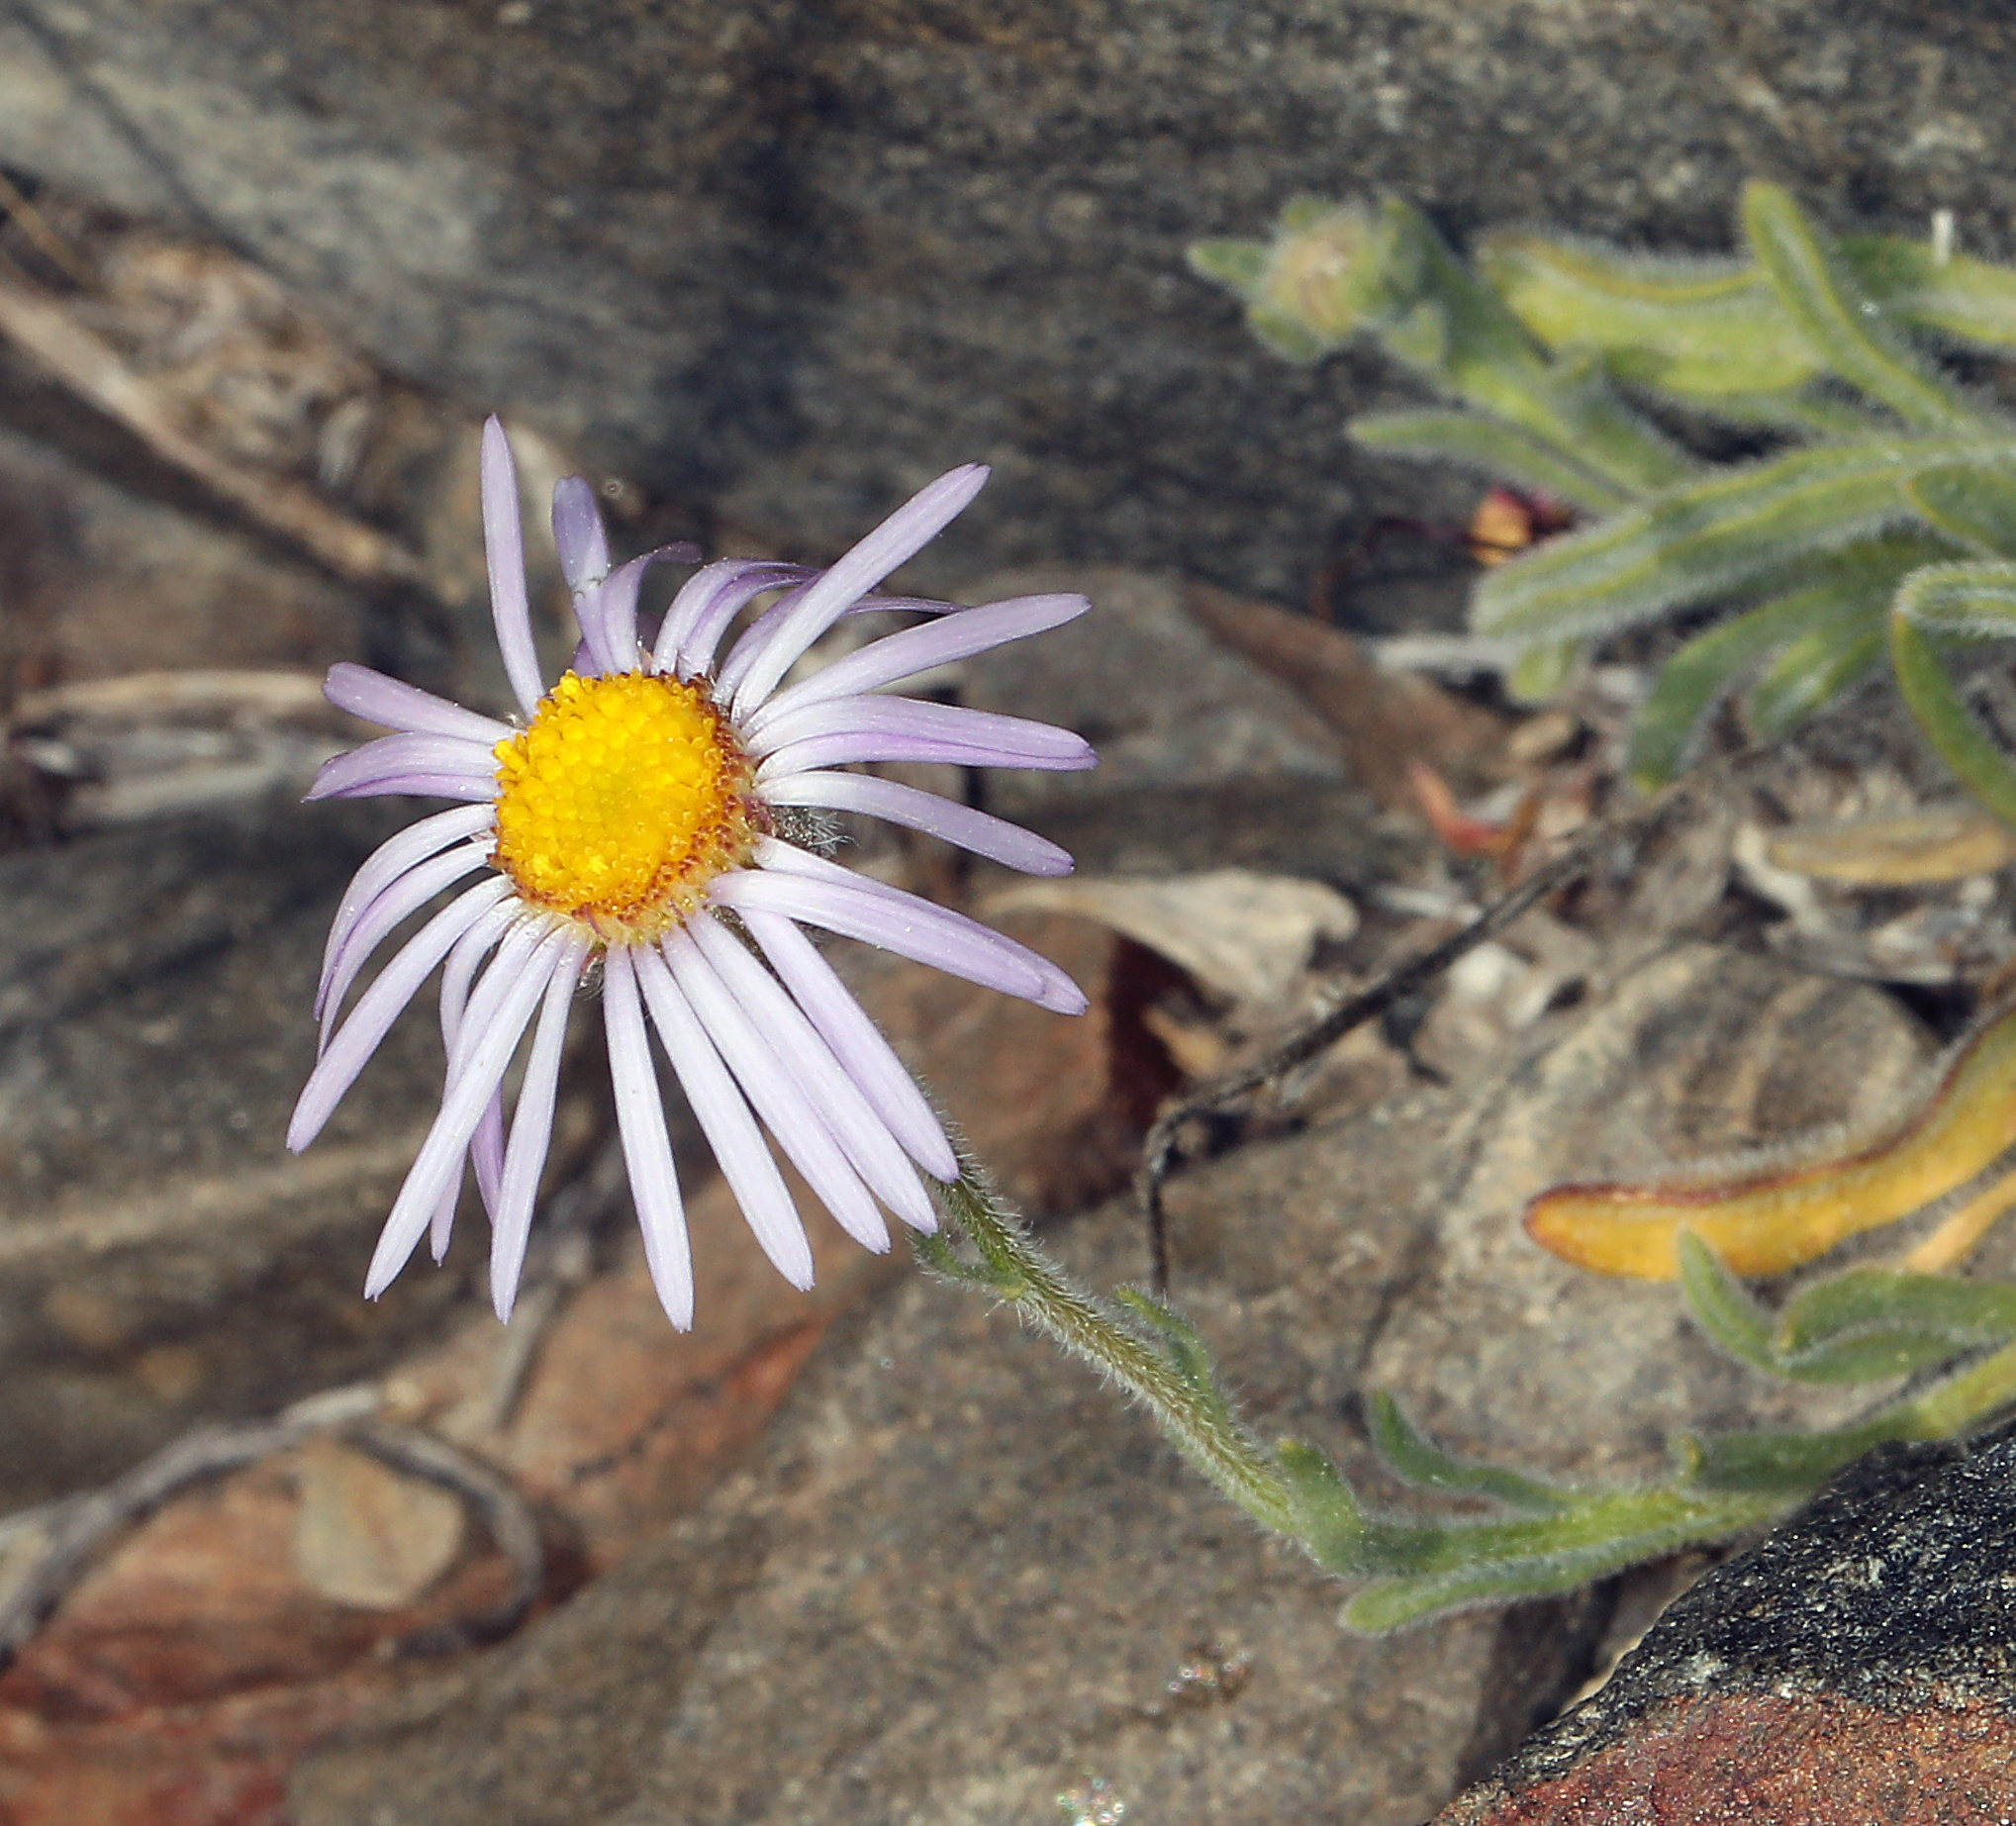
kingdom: Plantae
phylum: Tracheophyta
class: Magnoliopsida
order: Asterales
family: Asteraceae
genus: Erigeron
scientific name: Erigeron clokeyi
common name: Clokey's fleabane
